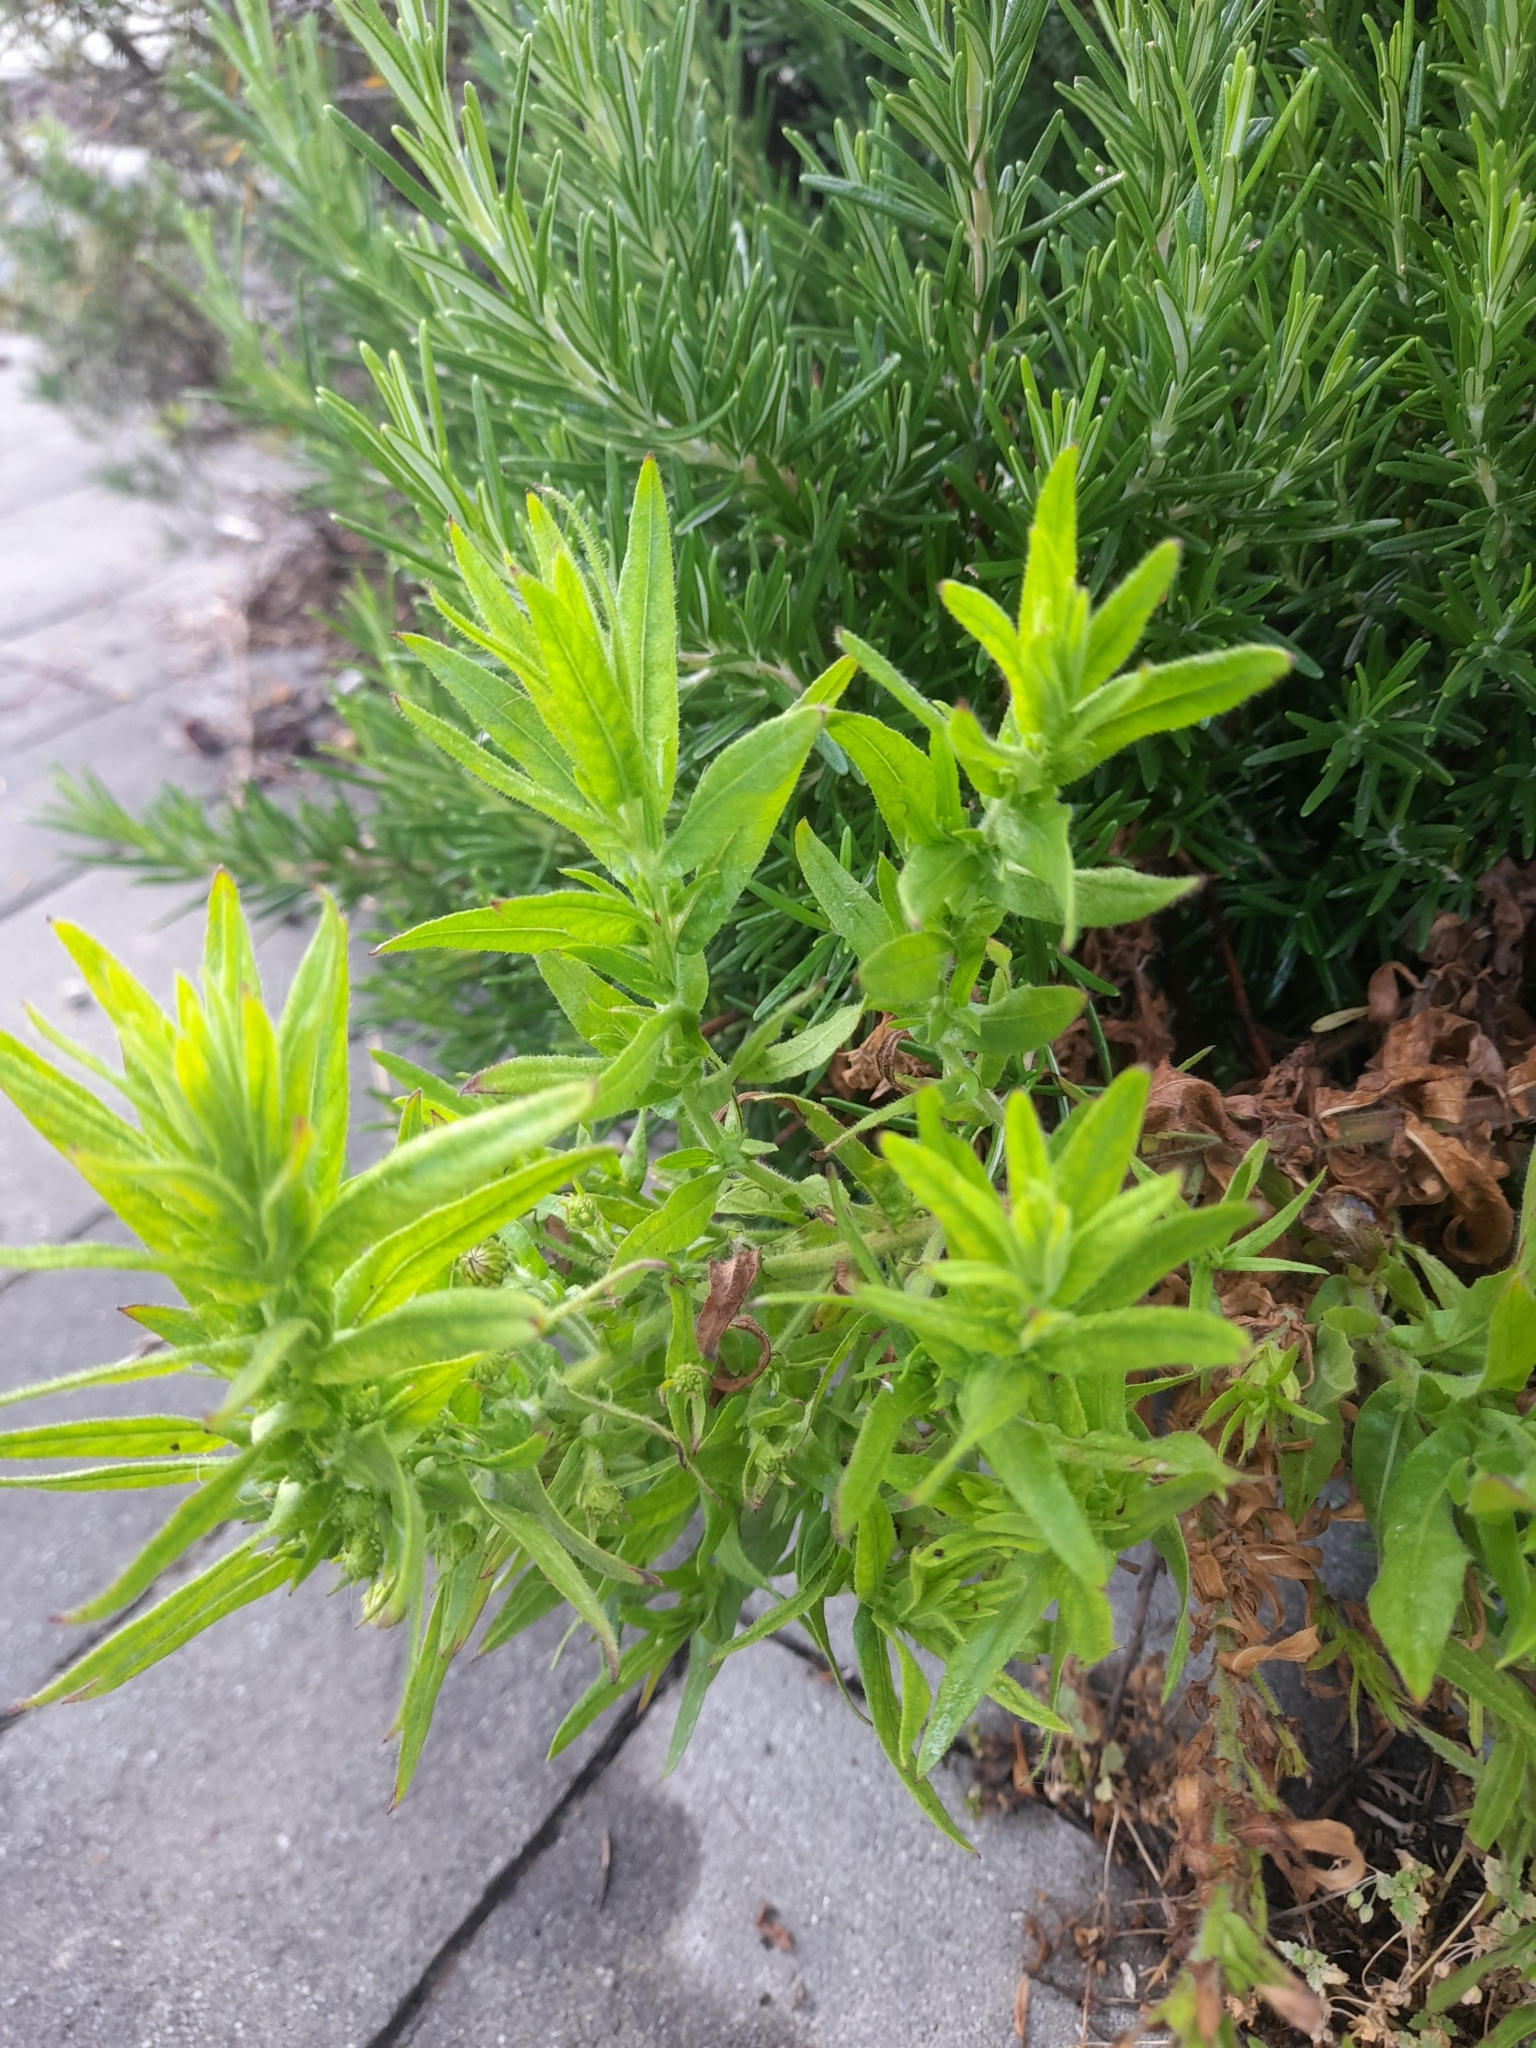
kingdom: Plantae
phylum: Tracheophyta
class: Magnoliopsida
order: Asterales
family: Asteraceae
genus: Dittrichia
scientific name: Dittrichia viscosa
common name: Woody fleabane
